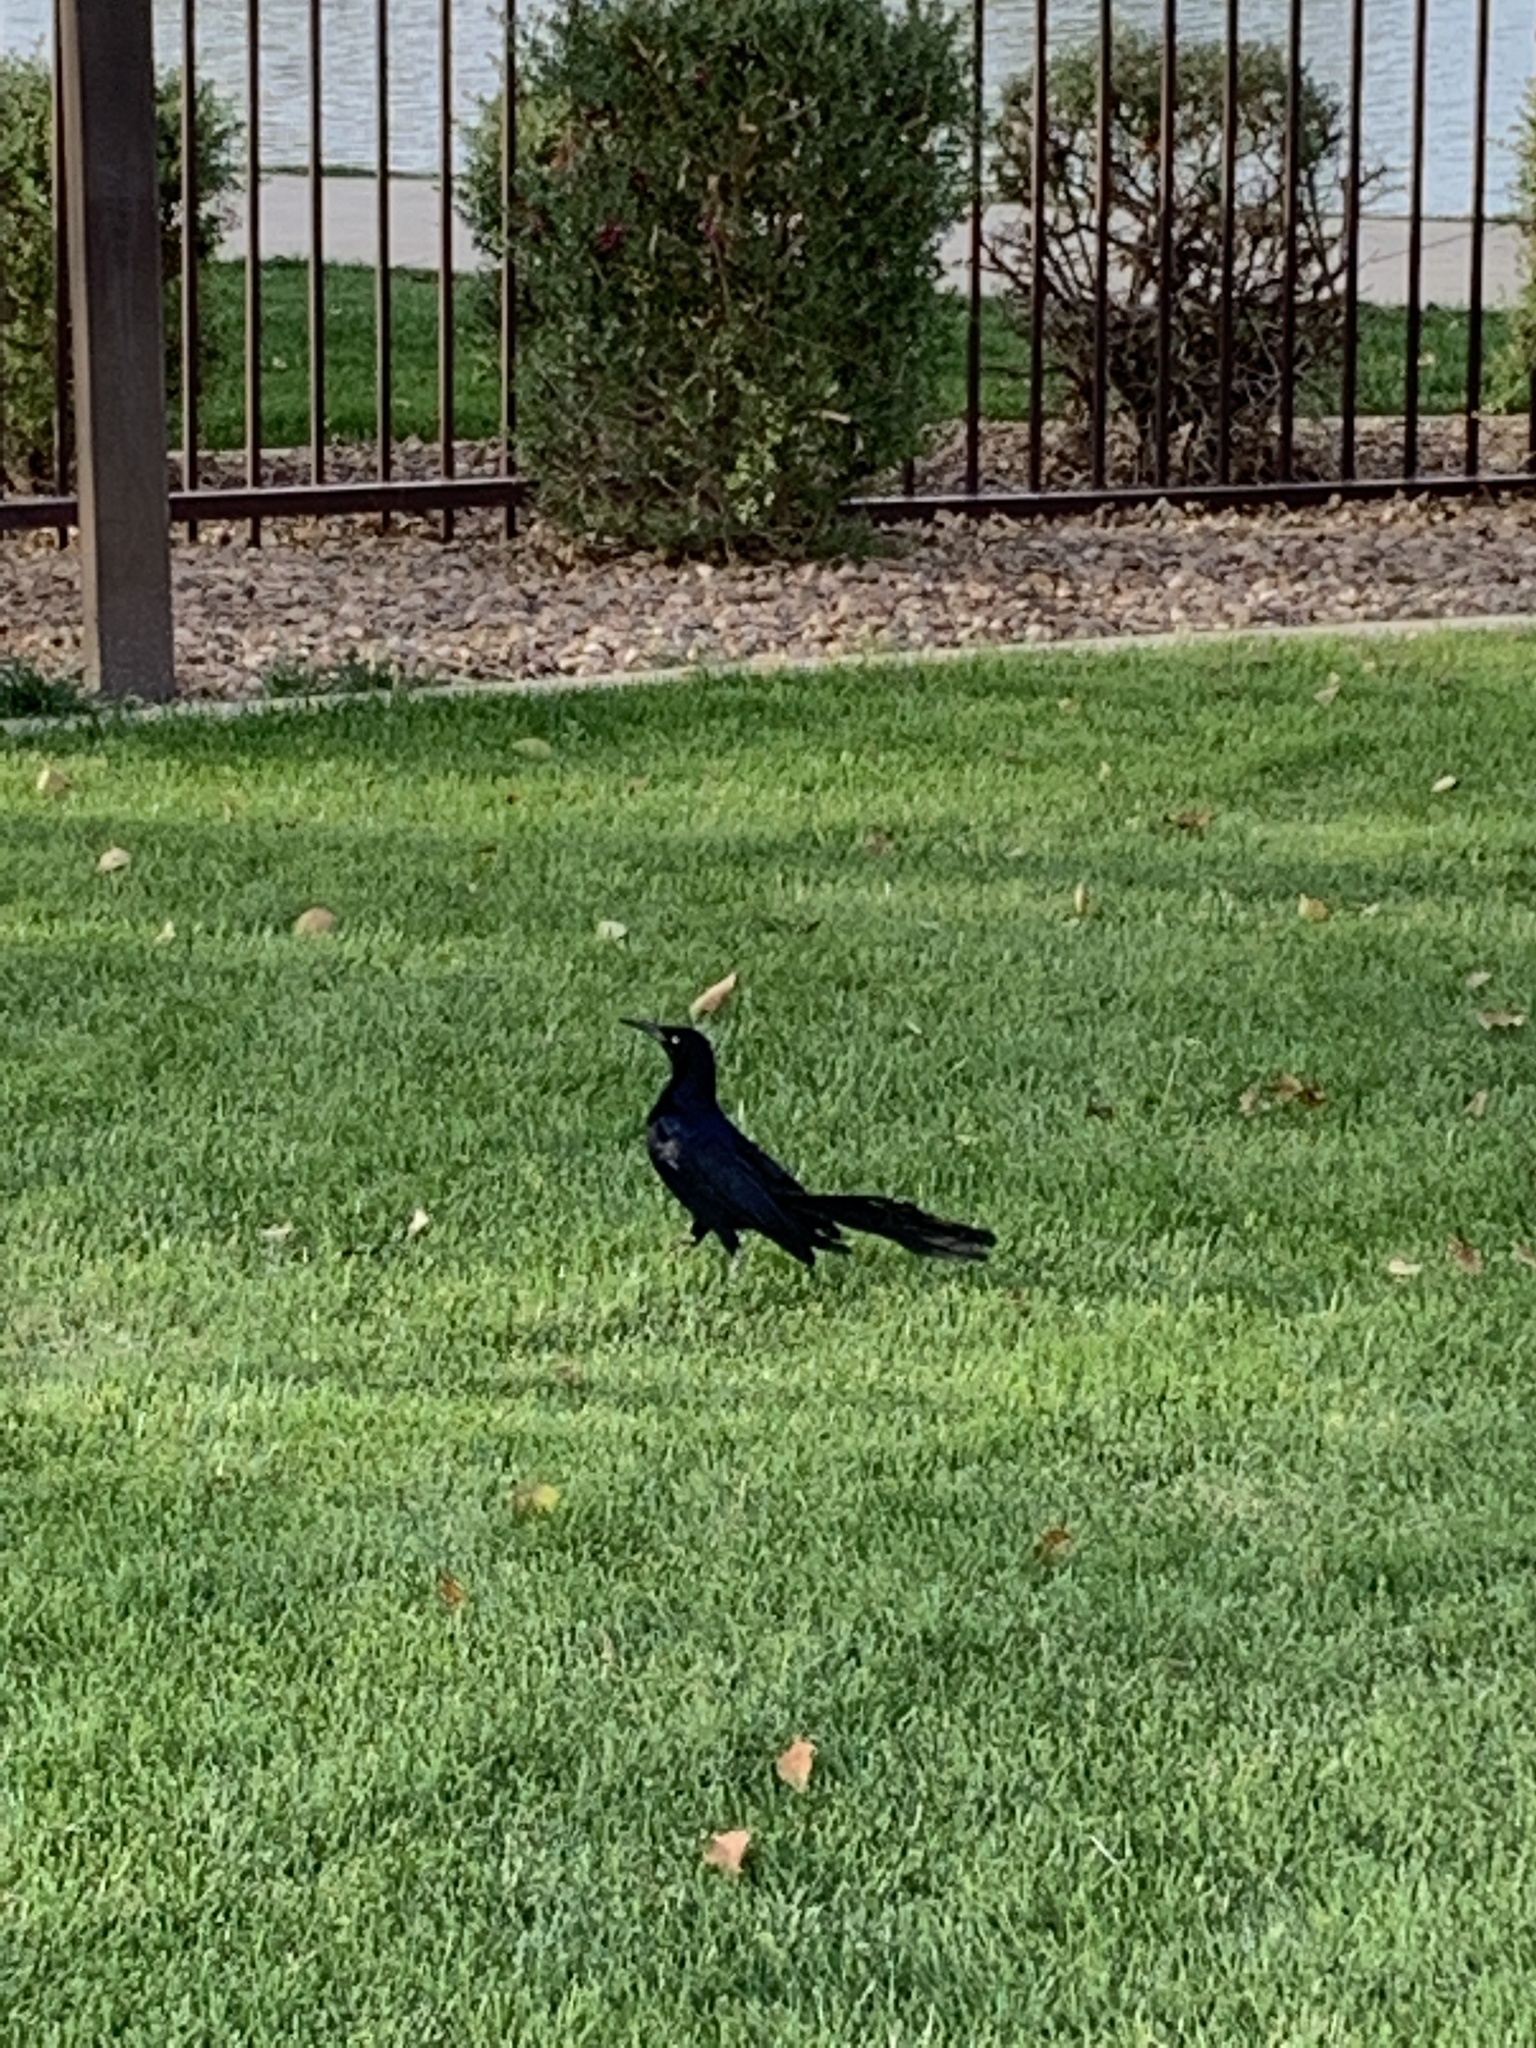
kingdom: Animalia
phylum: Chordata
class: Aves
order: Passeriformes
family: Icteridae
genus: Quiscalus
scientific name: Quiscalus mexicanus
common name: Great-tailed grackle
